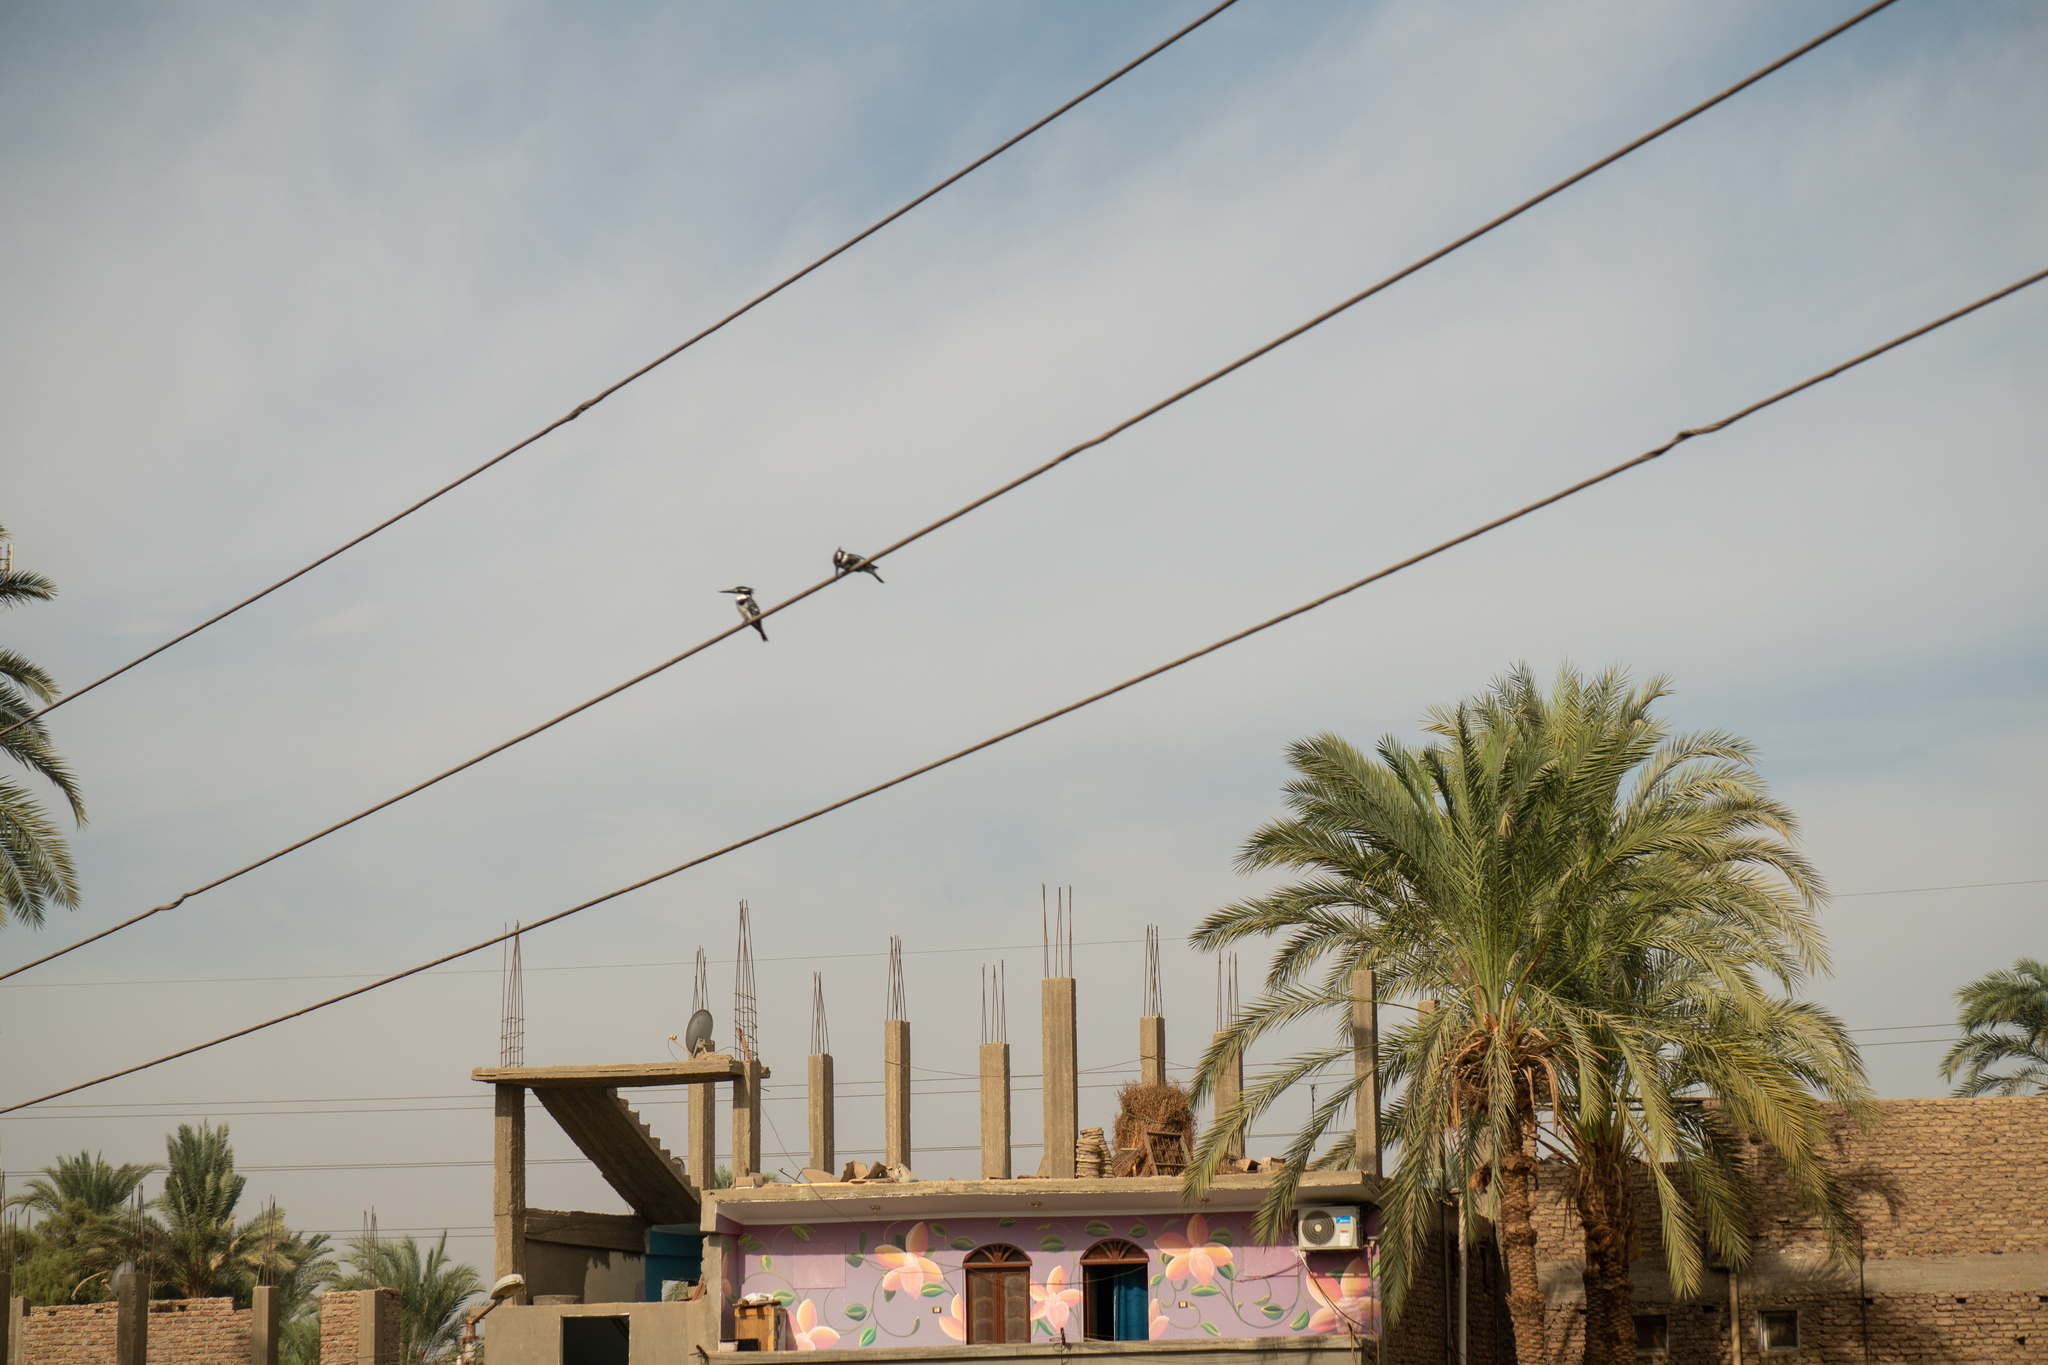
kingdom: Animalia
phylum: Chordata
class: Aves
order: Coraciiformes
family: Alcedinidae
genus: Ceryle
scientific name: Ceryle rudis
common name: Pied kingfisher
